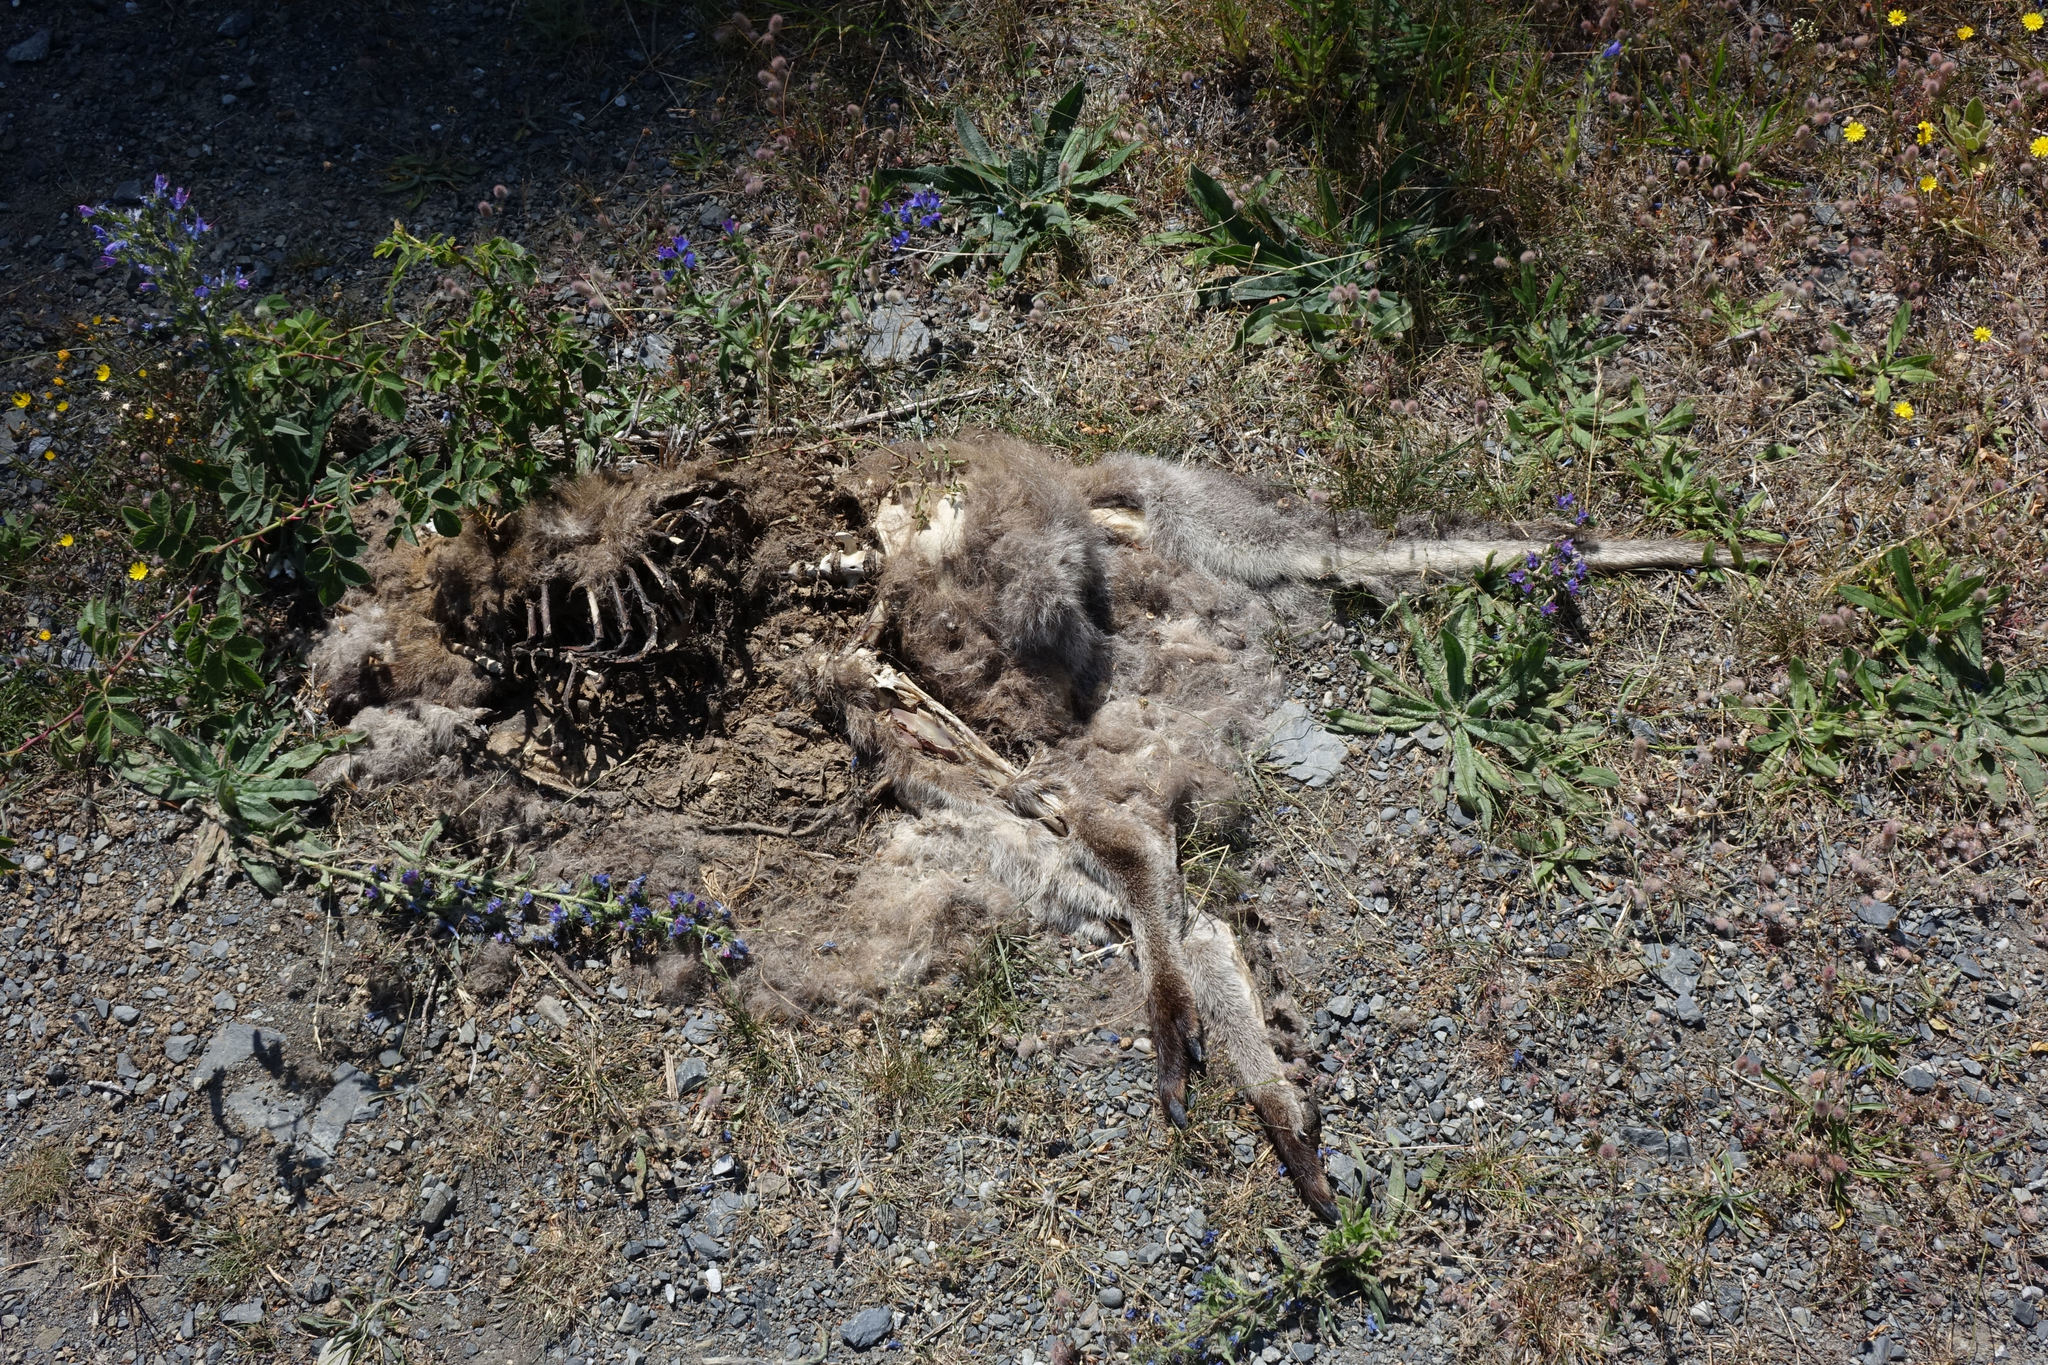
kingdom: Animalia
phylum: Chordata
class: Mammalia
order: Diprotodontia
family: Macropodidae
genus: Notamacropus
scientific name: Notamacropus rufogriseus
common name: Red-necked wallaby
